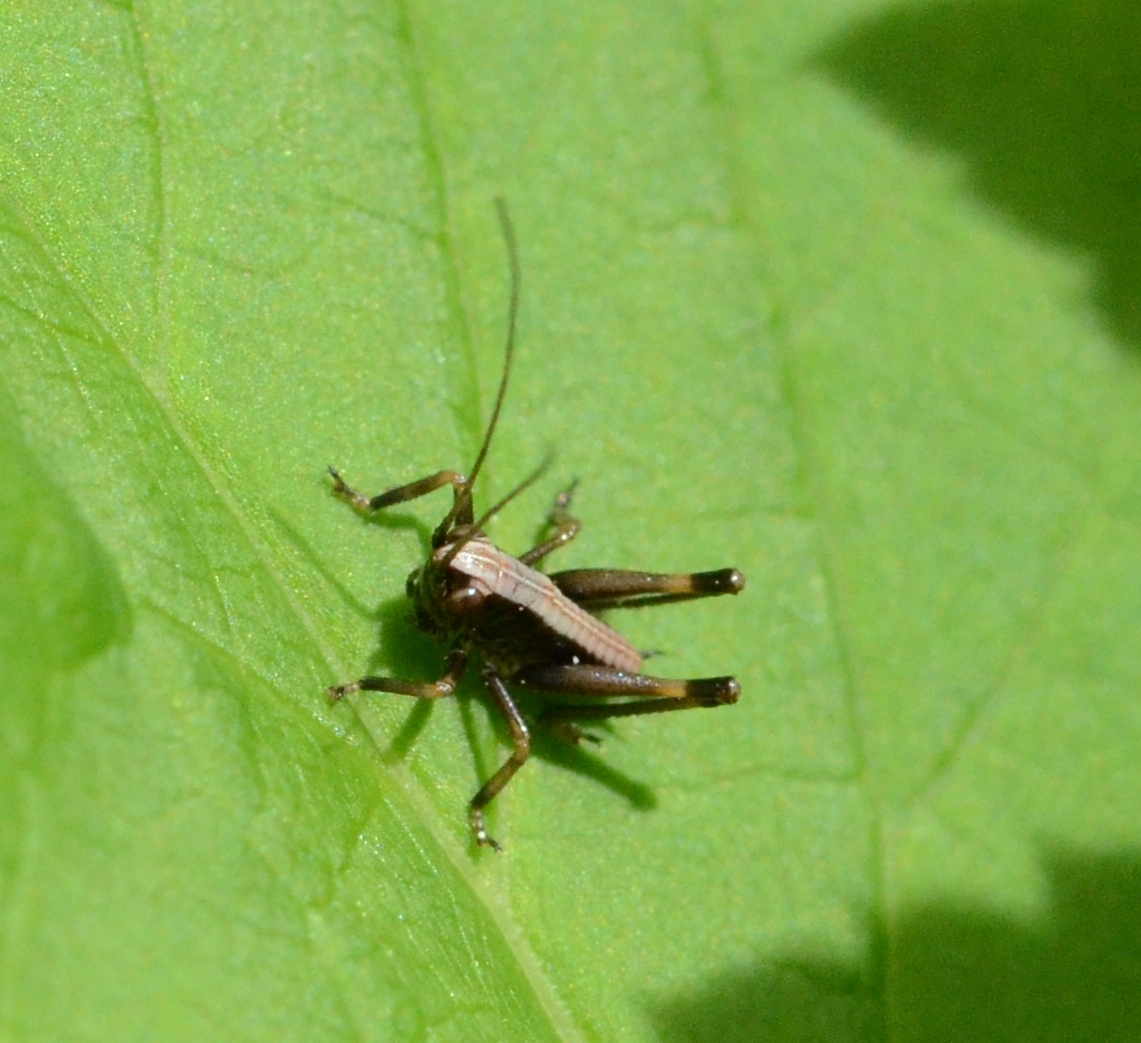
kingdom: Animalia
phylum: Arthropoda
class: Insecta
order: Orthoptera
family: Tettigoniidae
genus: Pholidoptera
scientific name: Pholidoptera griseoaptera
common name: Dark bush-cricket
